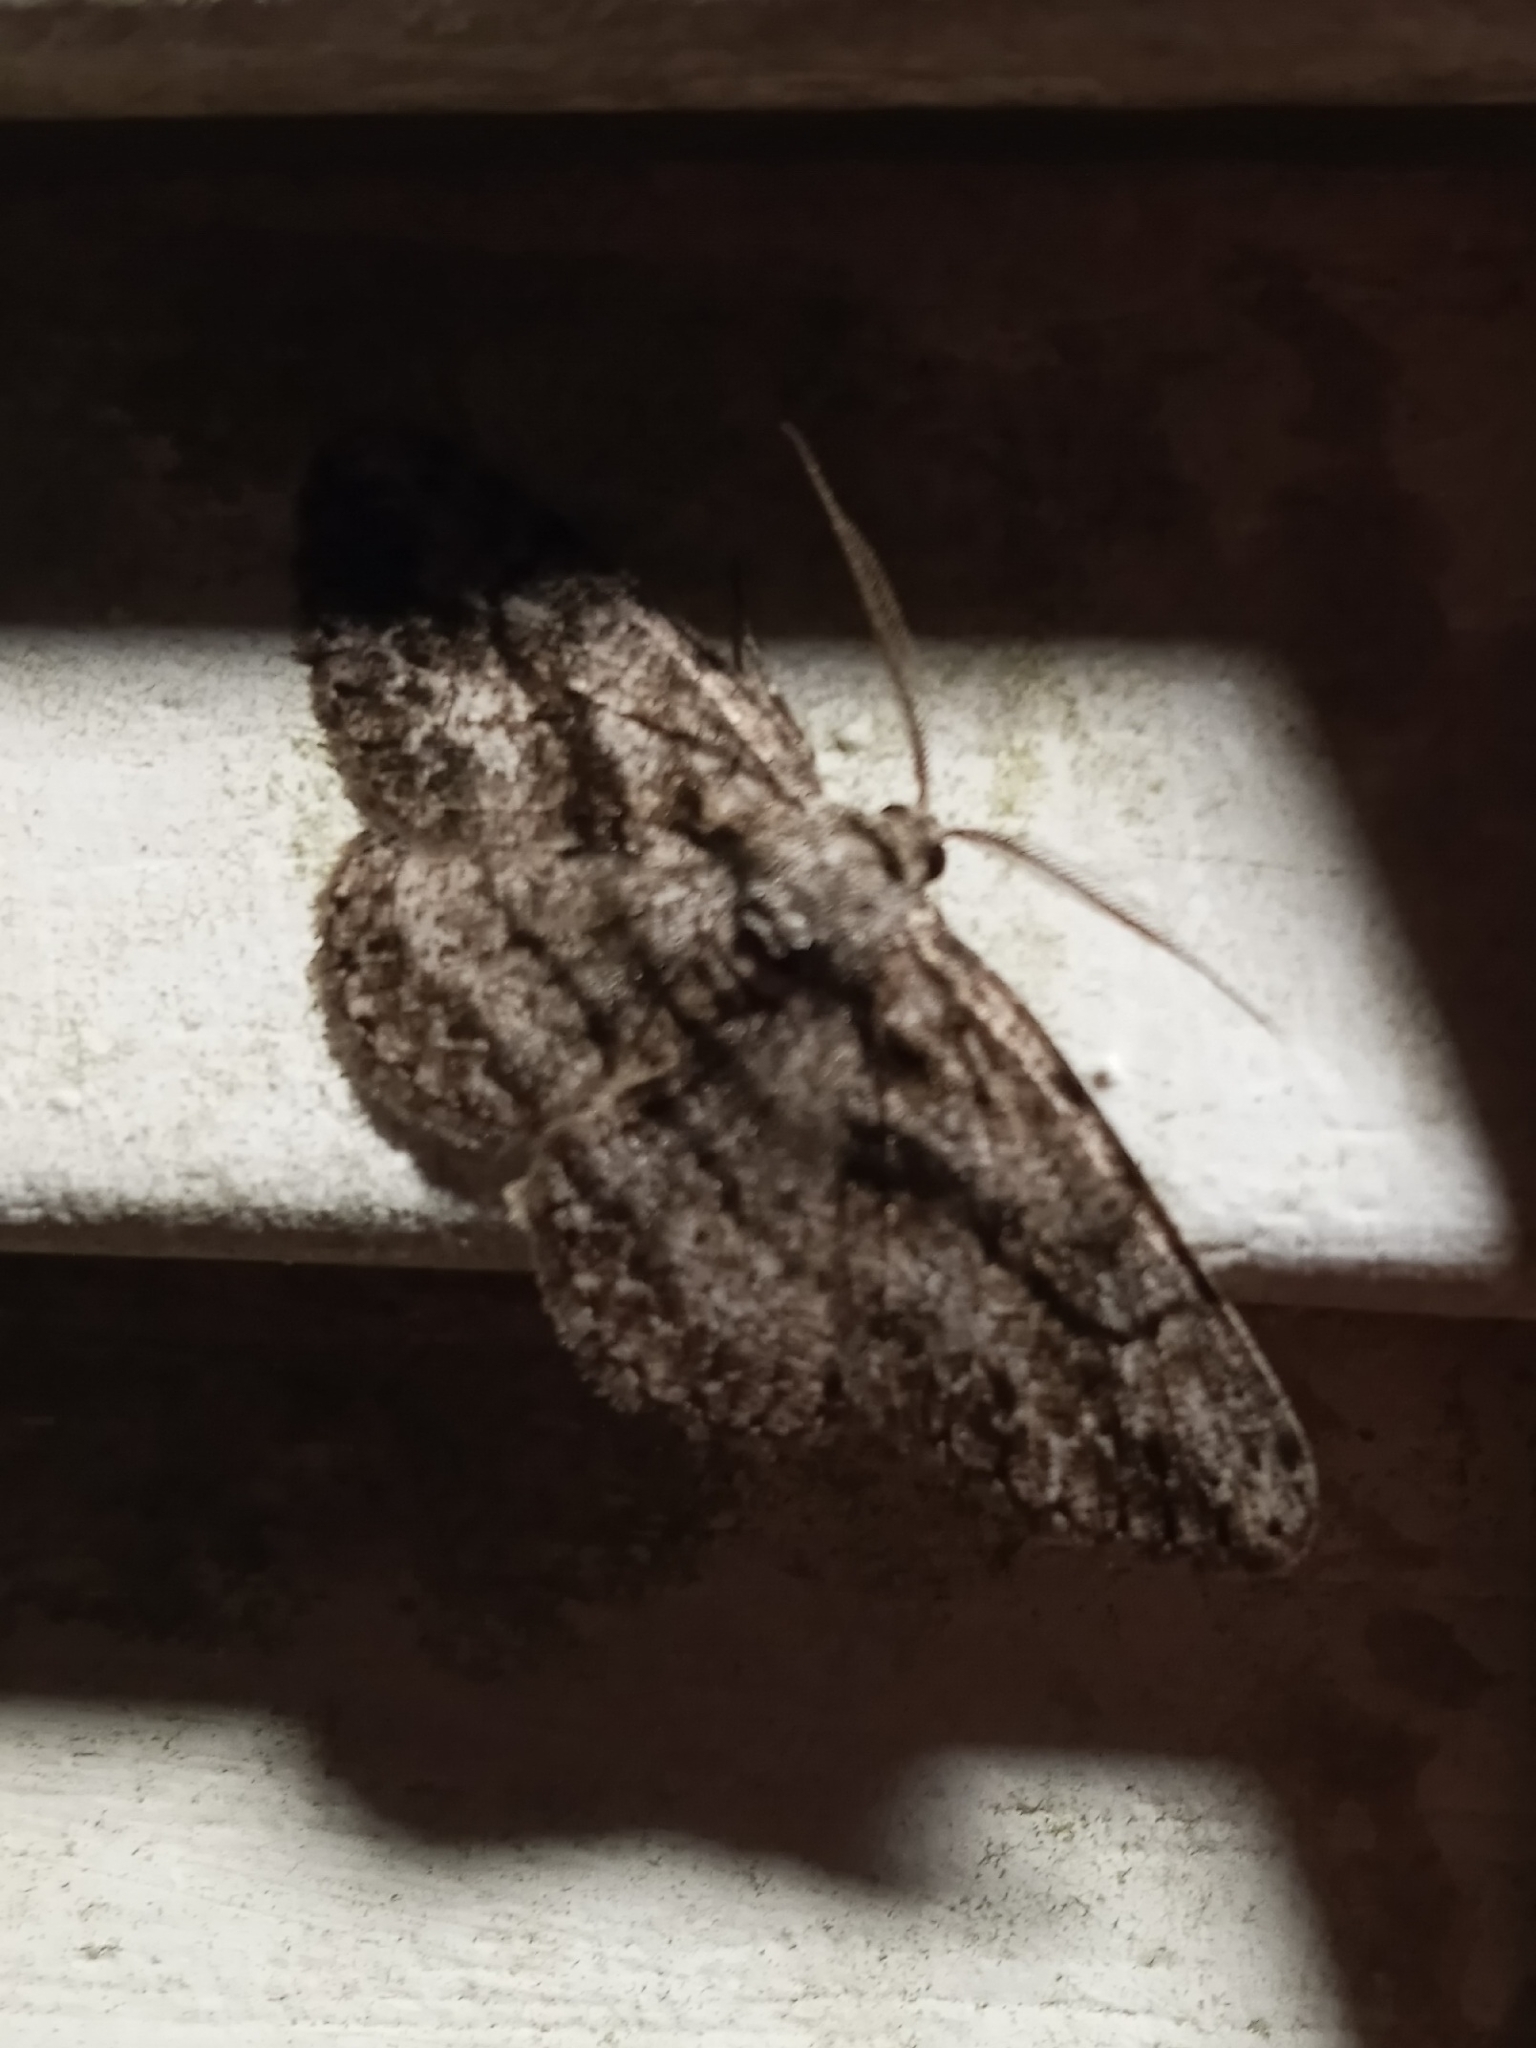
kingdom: Animalia
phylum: Arthropoda
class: Insecta
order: Lepidoptera
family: Geometridae
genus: Anavitrinella
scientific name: Anavitrinella pampinaria
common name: Common gray
